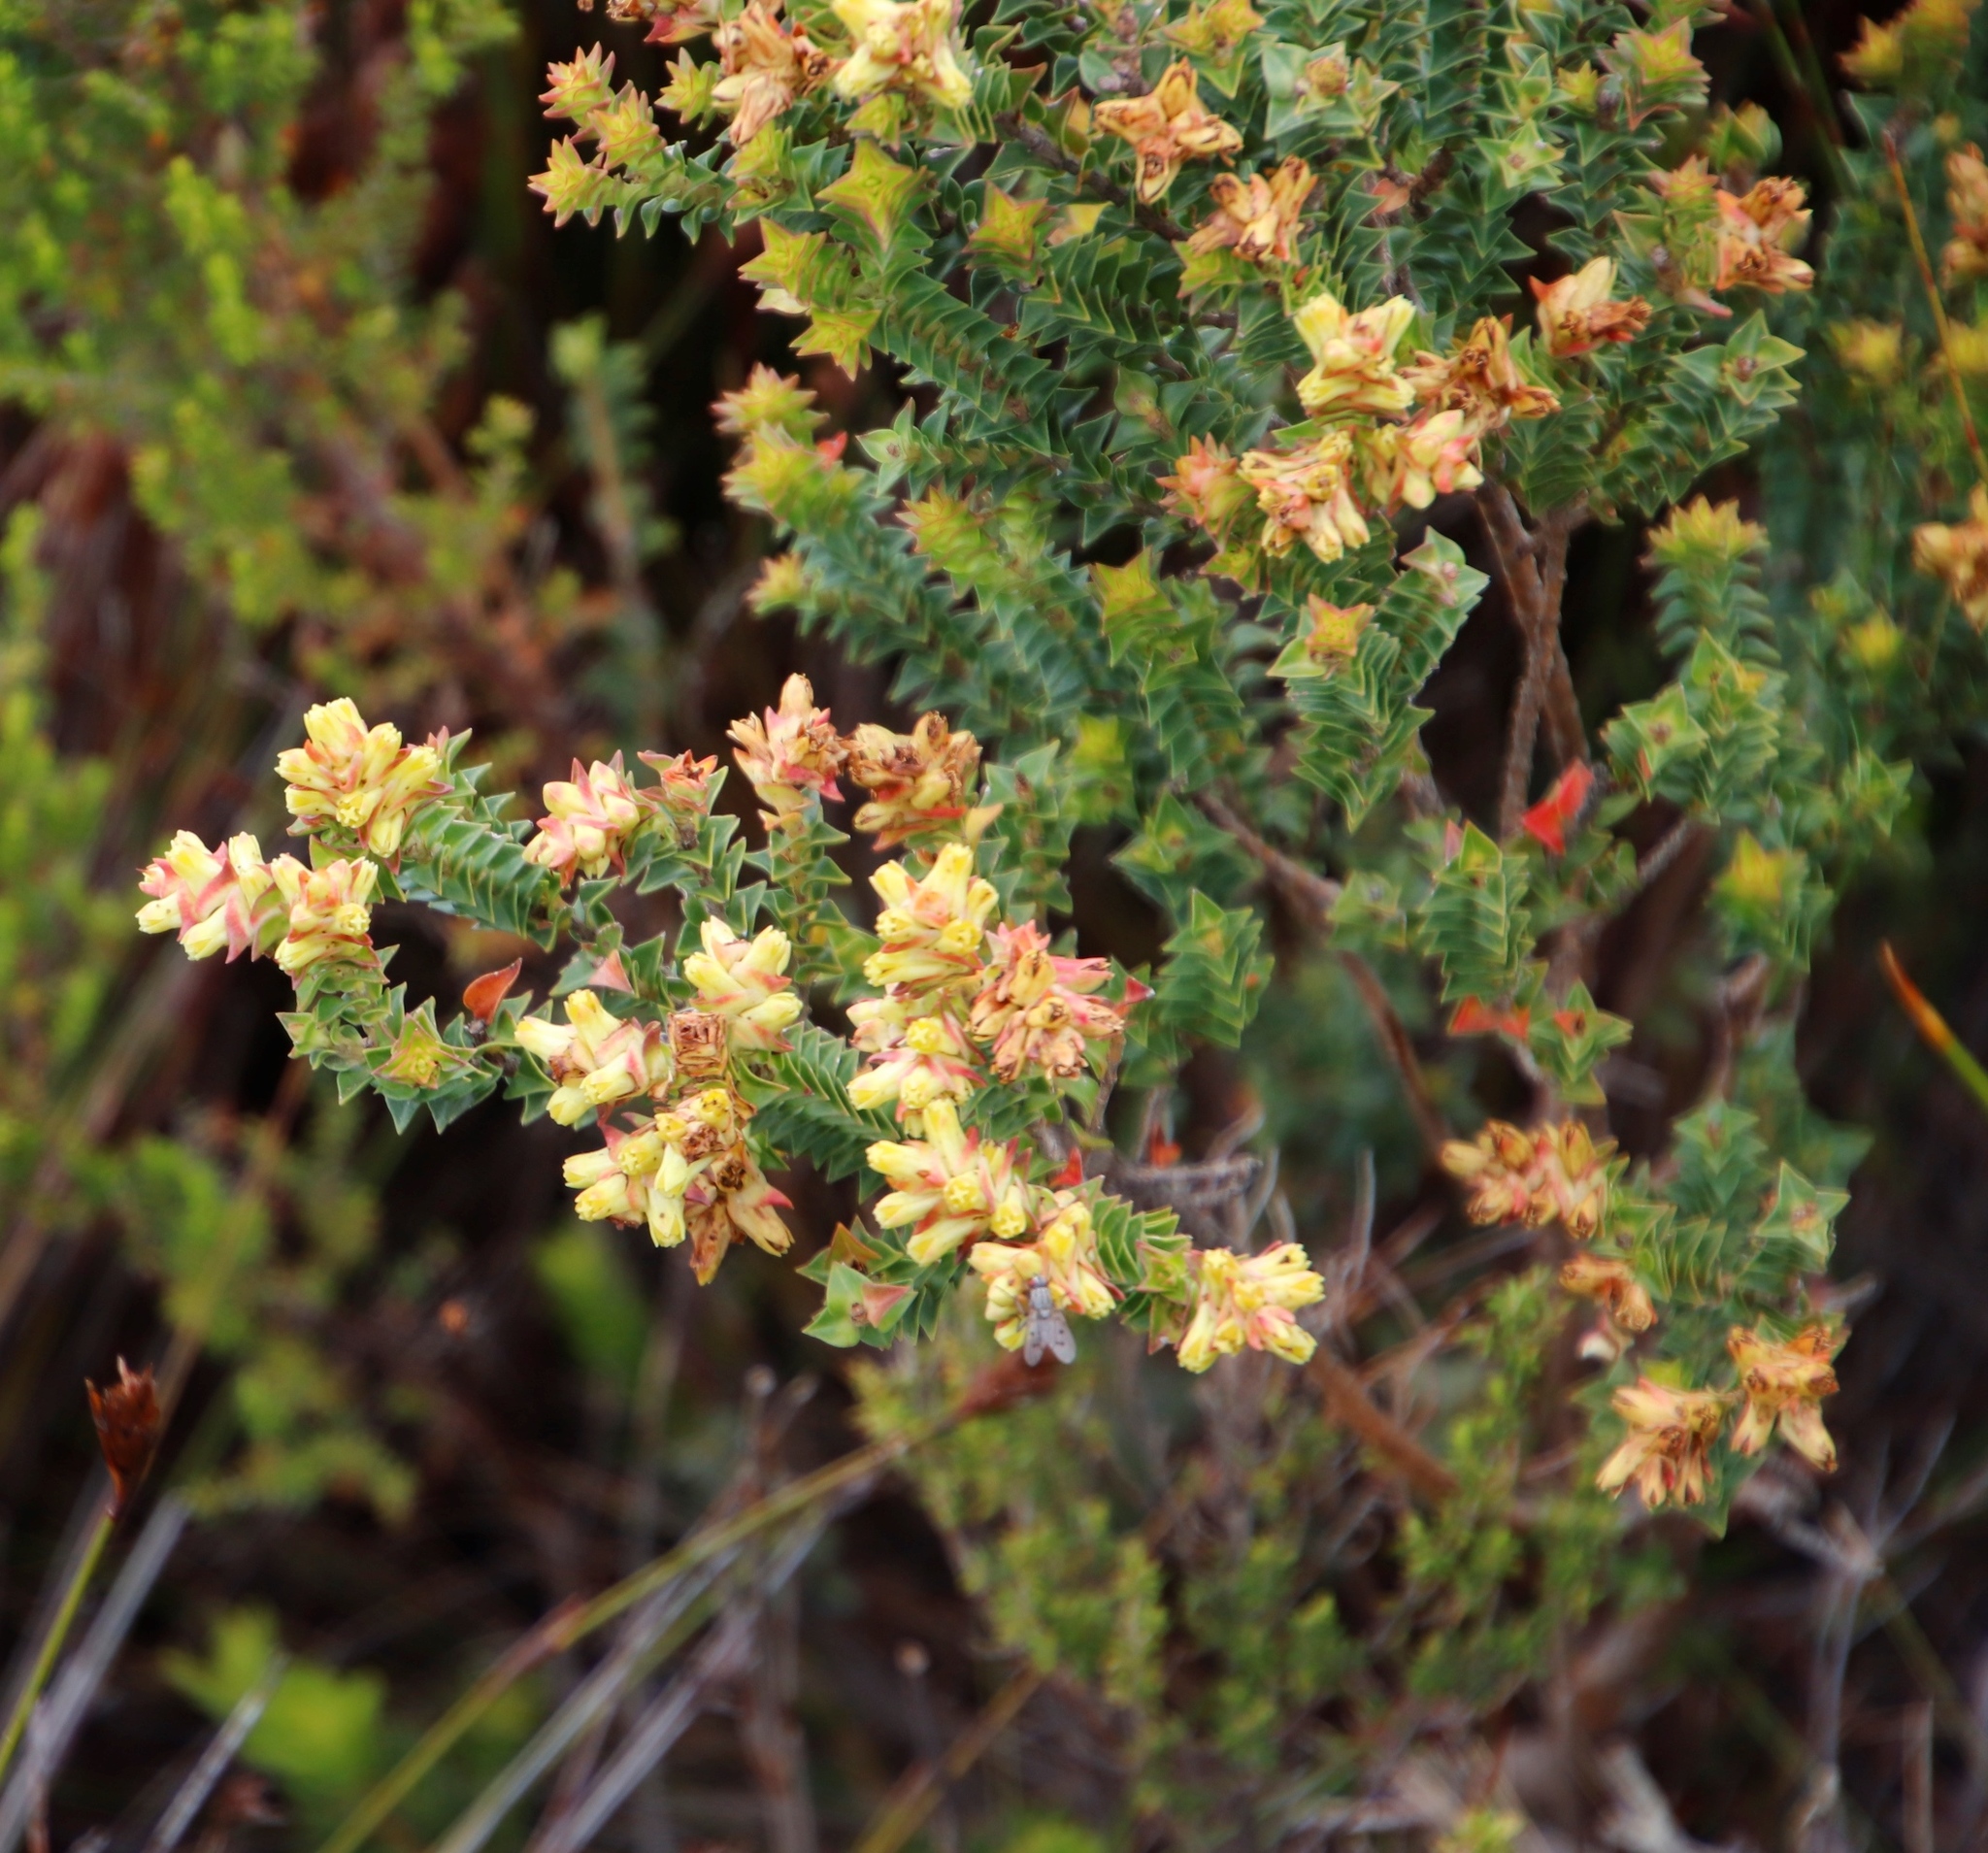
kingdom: Plantae
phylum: Tracheophyta
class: Magnoliopsida
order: Myrtales
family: Penaeaceae
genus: Penaea
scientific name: Penaea mucronata
